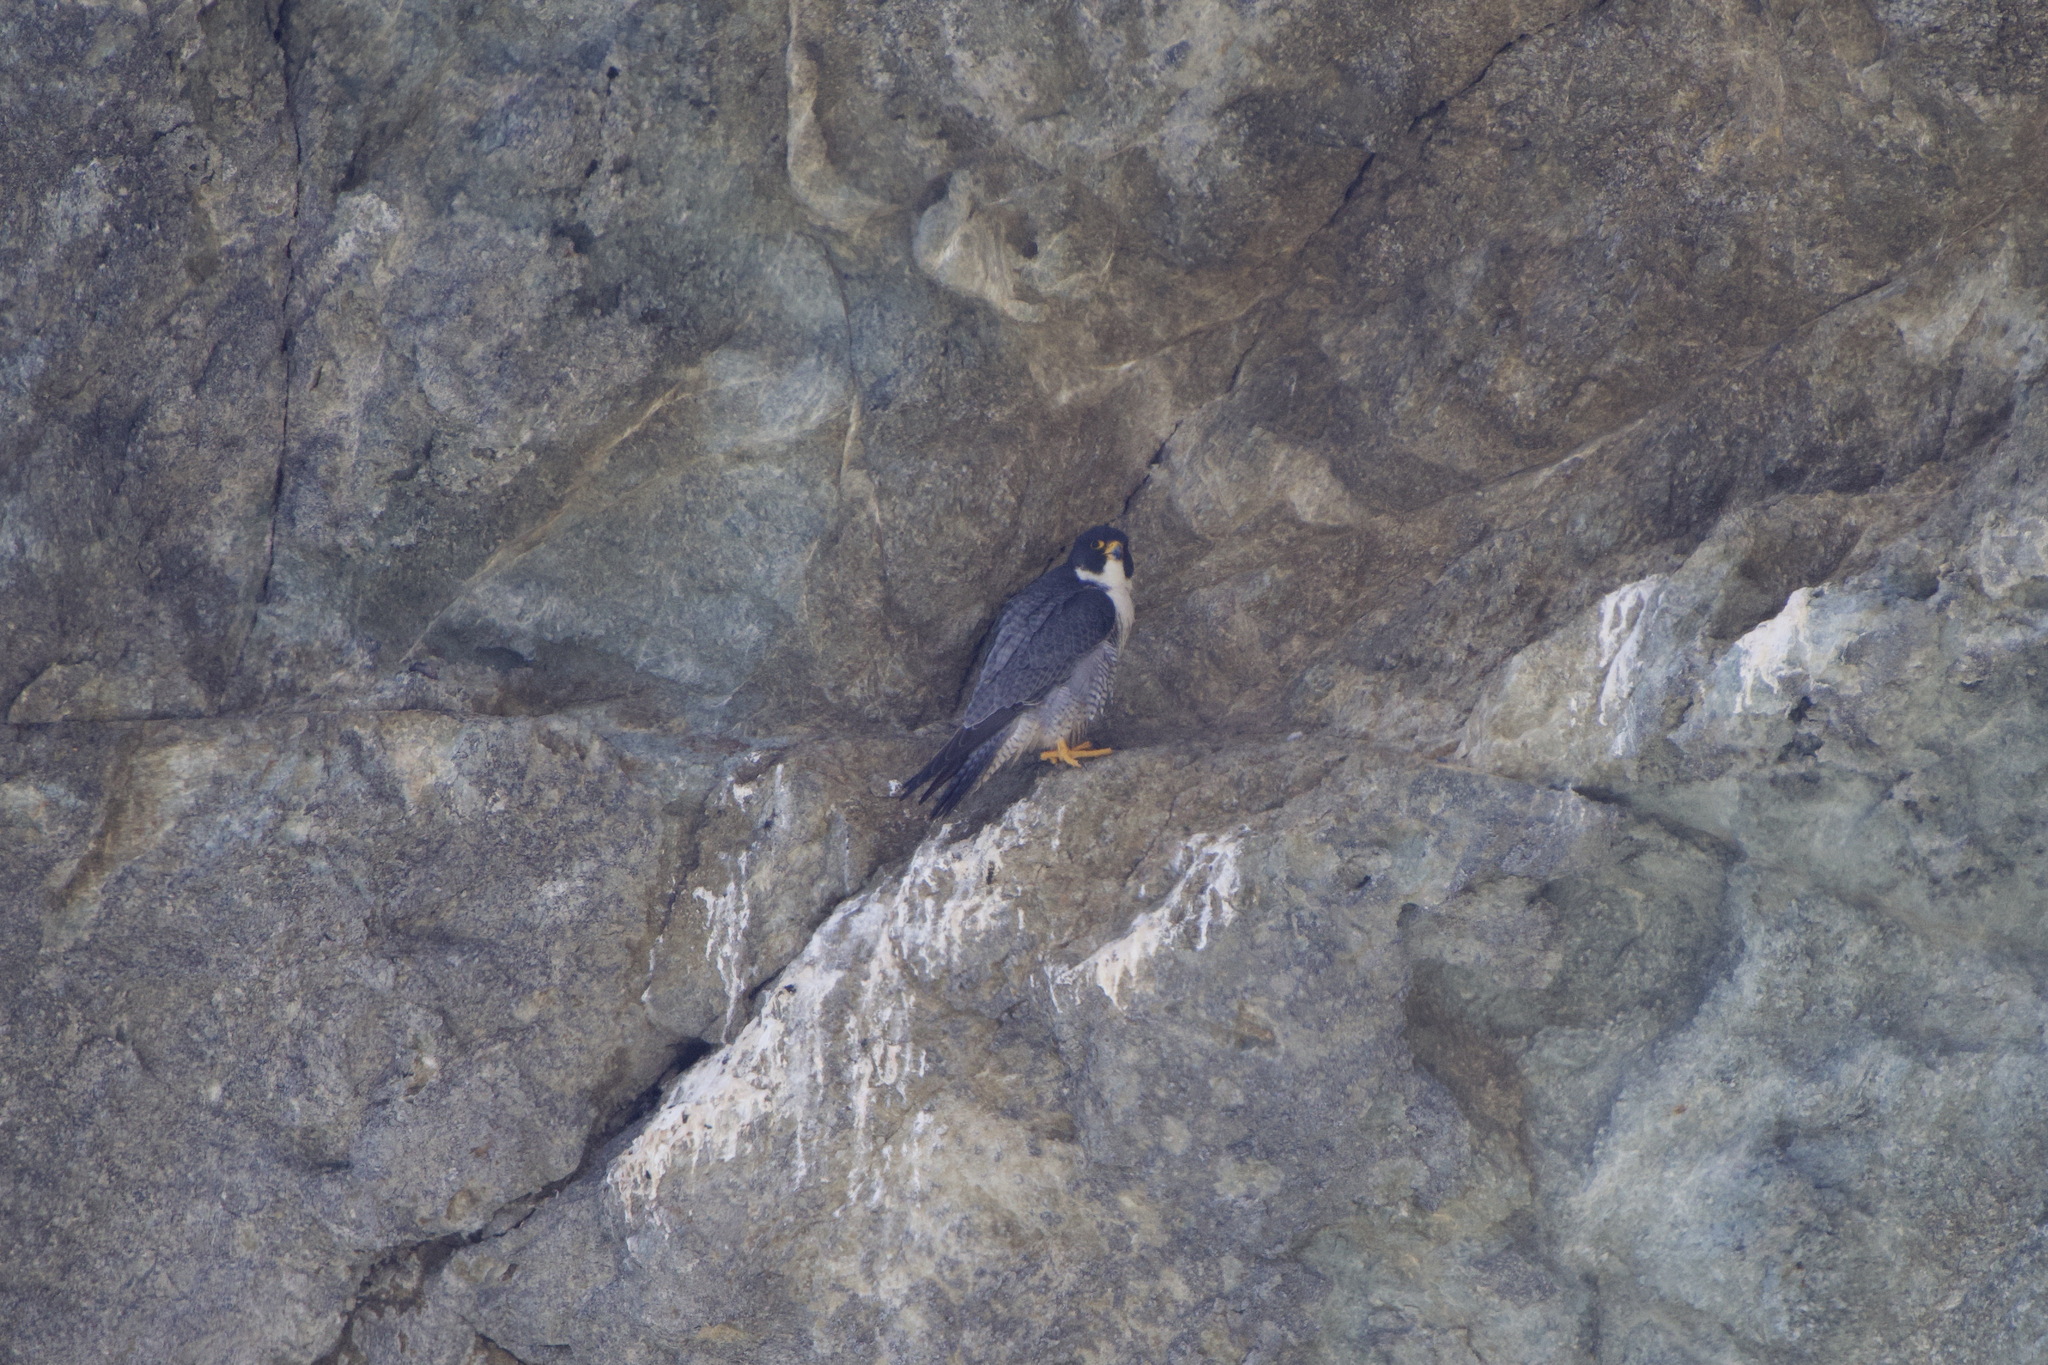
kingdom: Animalia
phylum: Chordata
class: Aves
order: Falconiformes
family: Falconidae
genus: Falco
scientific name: Falco peregrinus
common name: Peregrine falcon
